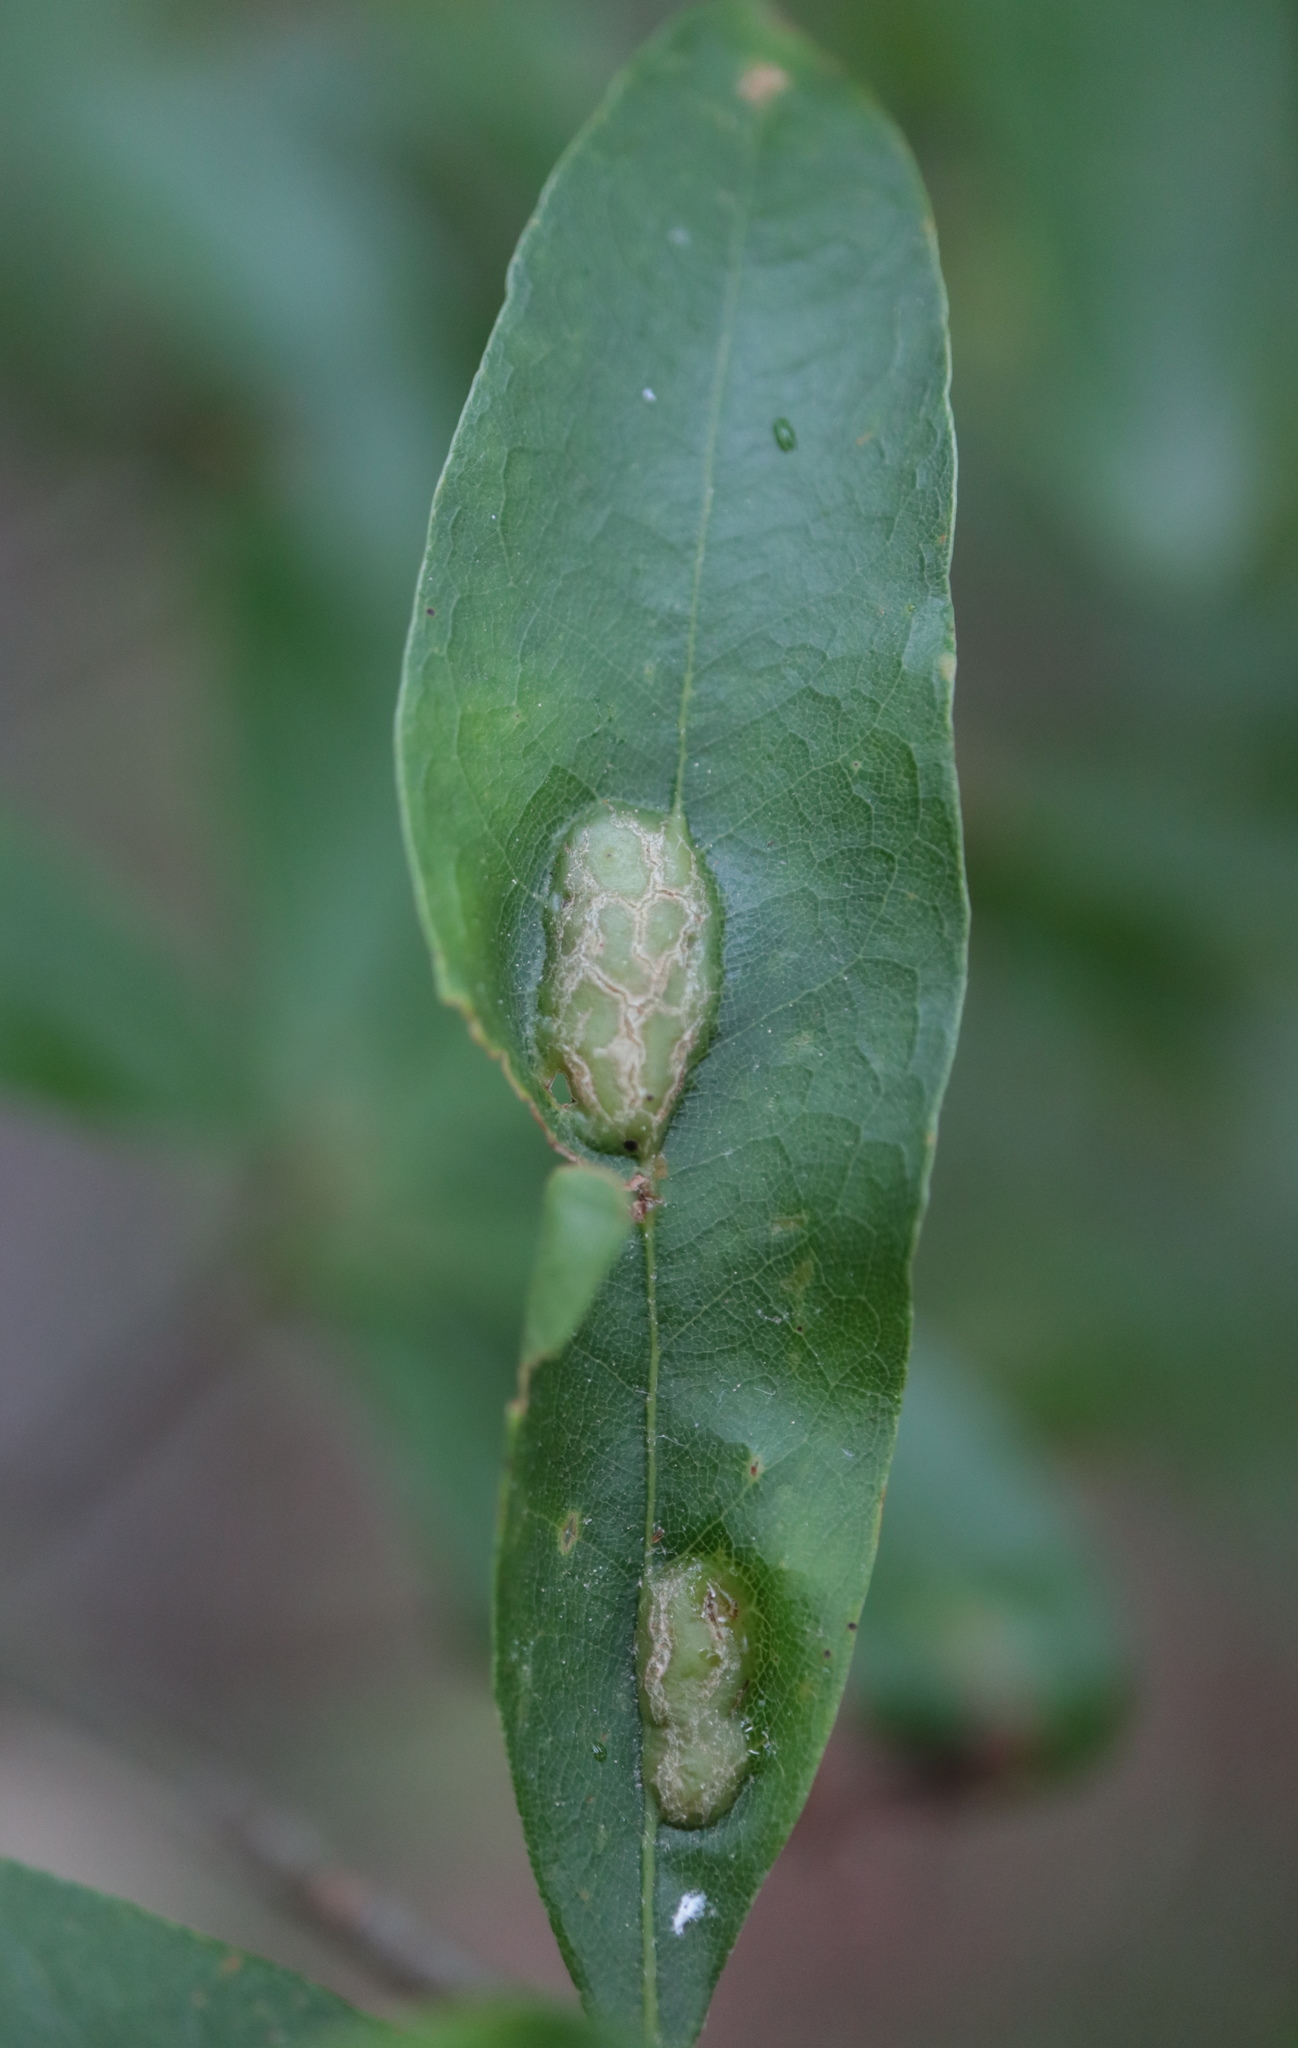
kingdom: Animalia
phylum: Arthropoda
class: Insecta
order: Diptera
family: Cecidomyiidae
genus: Polystepha
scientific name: Polystepha pilulae
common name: Oak leaf gall midge
